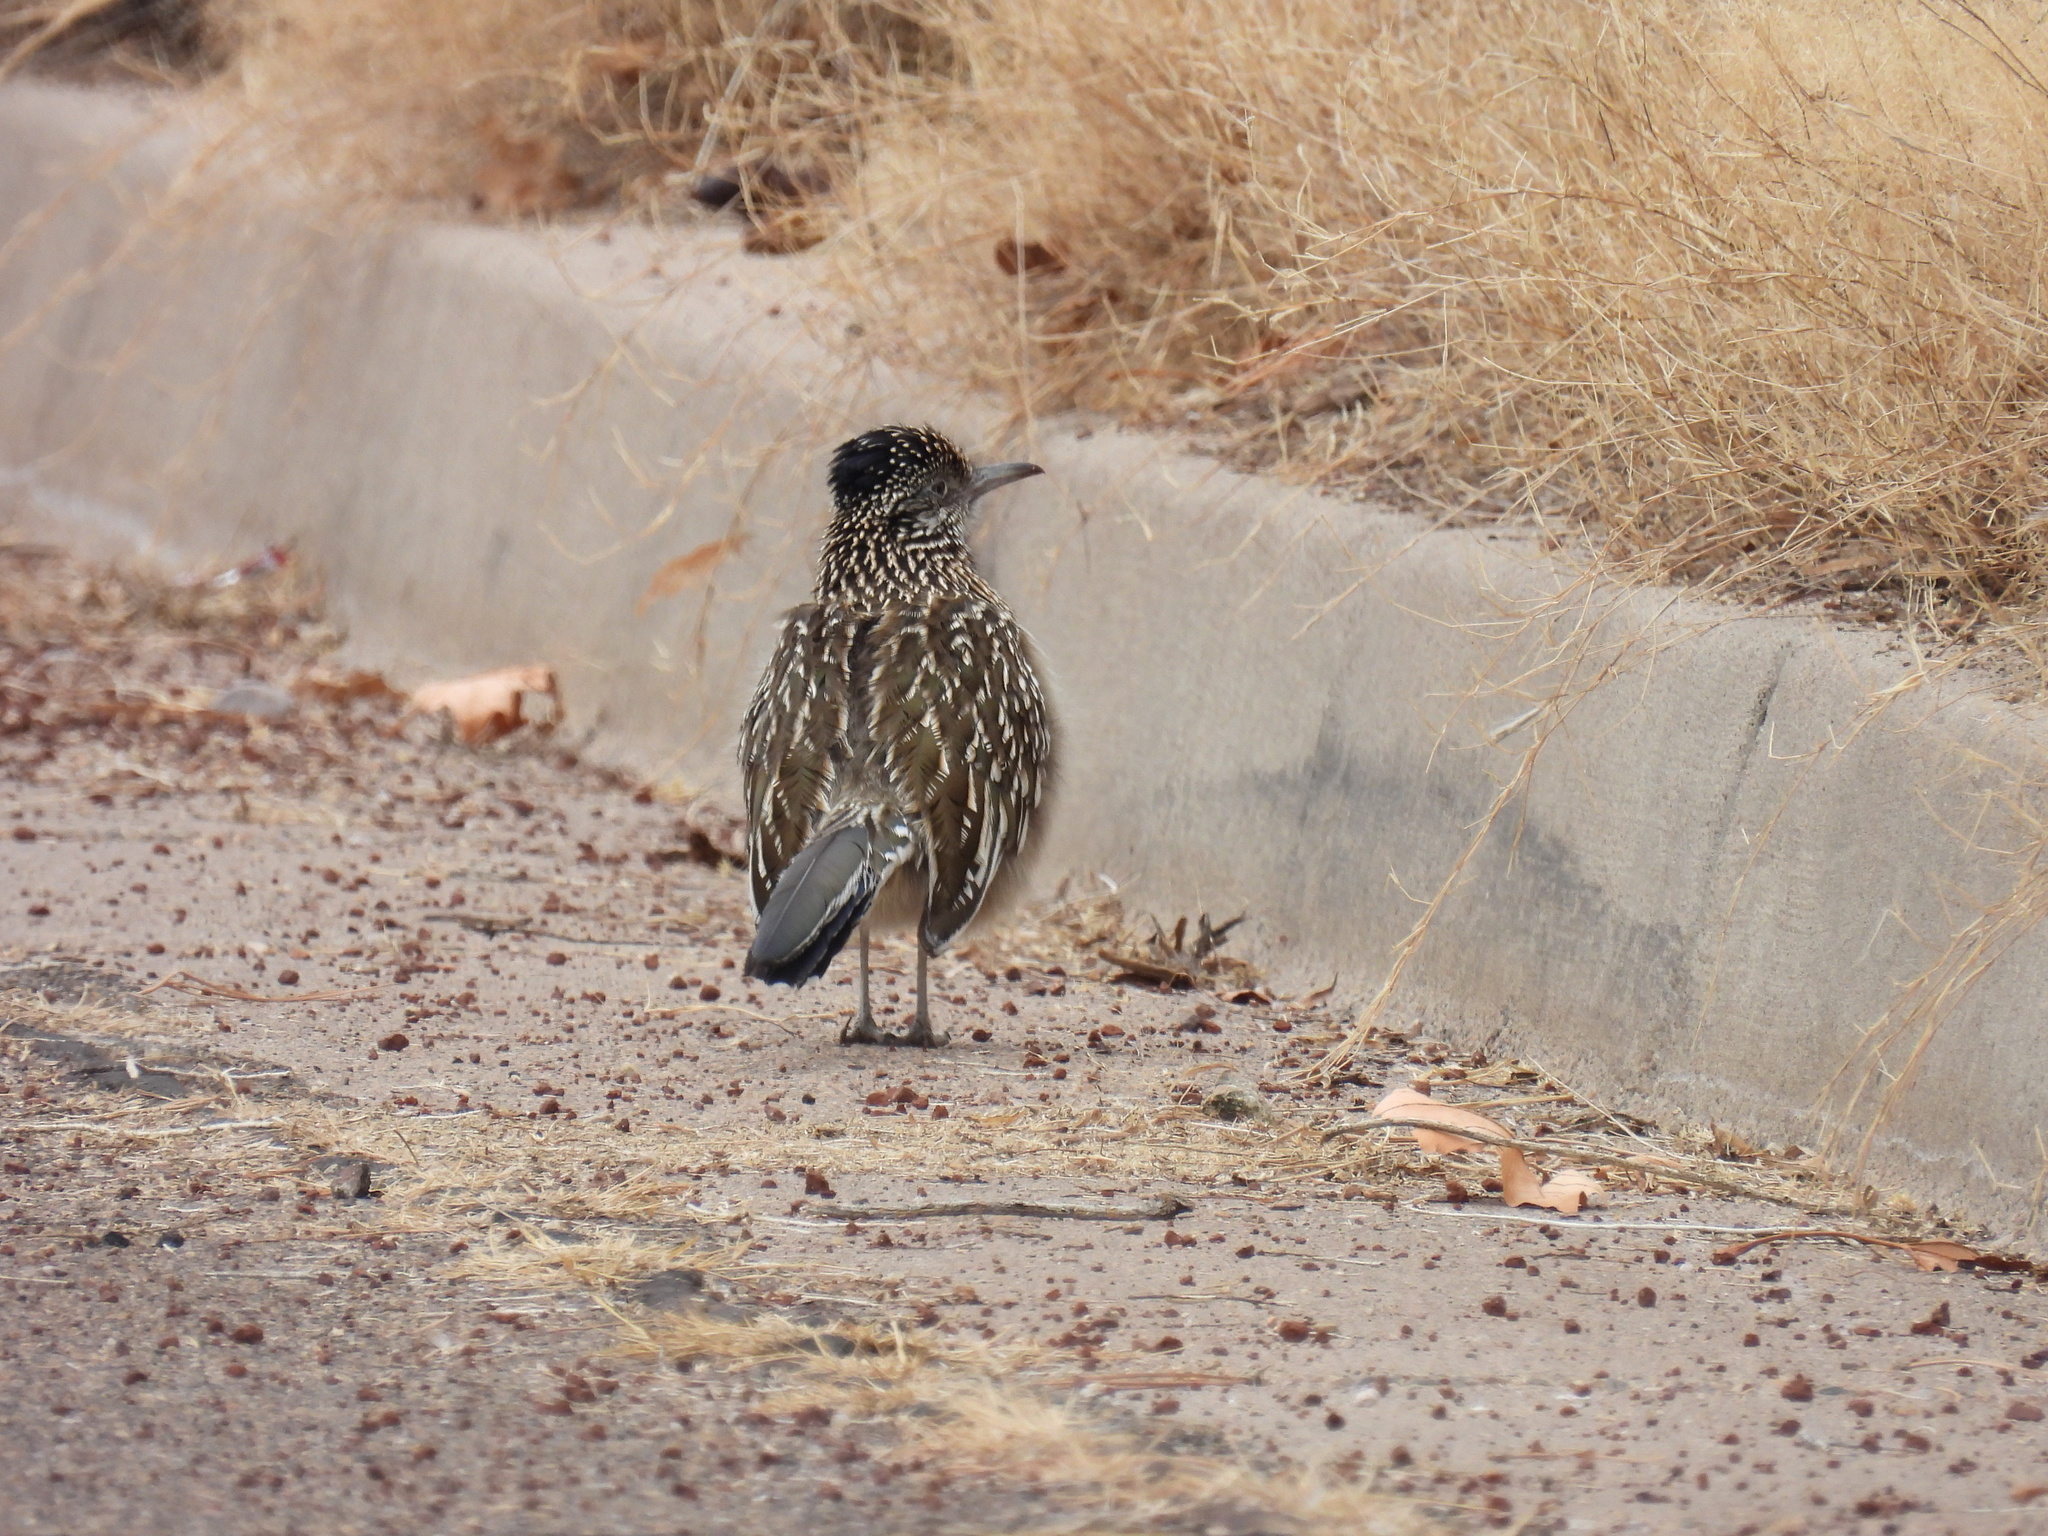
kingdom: Animalia
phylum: Chordata
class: Aves
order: Cuculiformes
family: Cuculidae
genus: Geococcyx
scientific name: Geococcyx californianus
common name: Greater roadrunner
